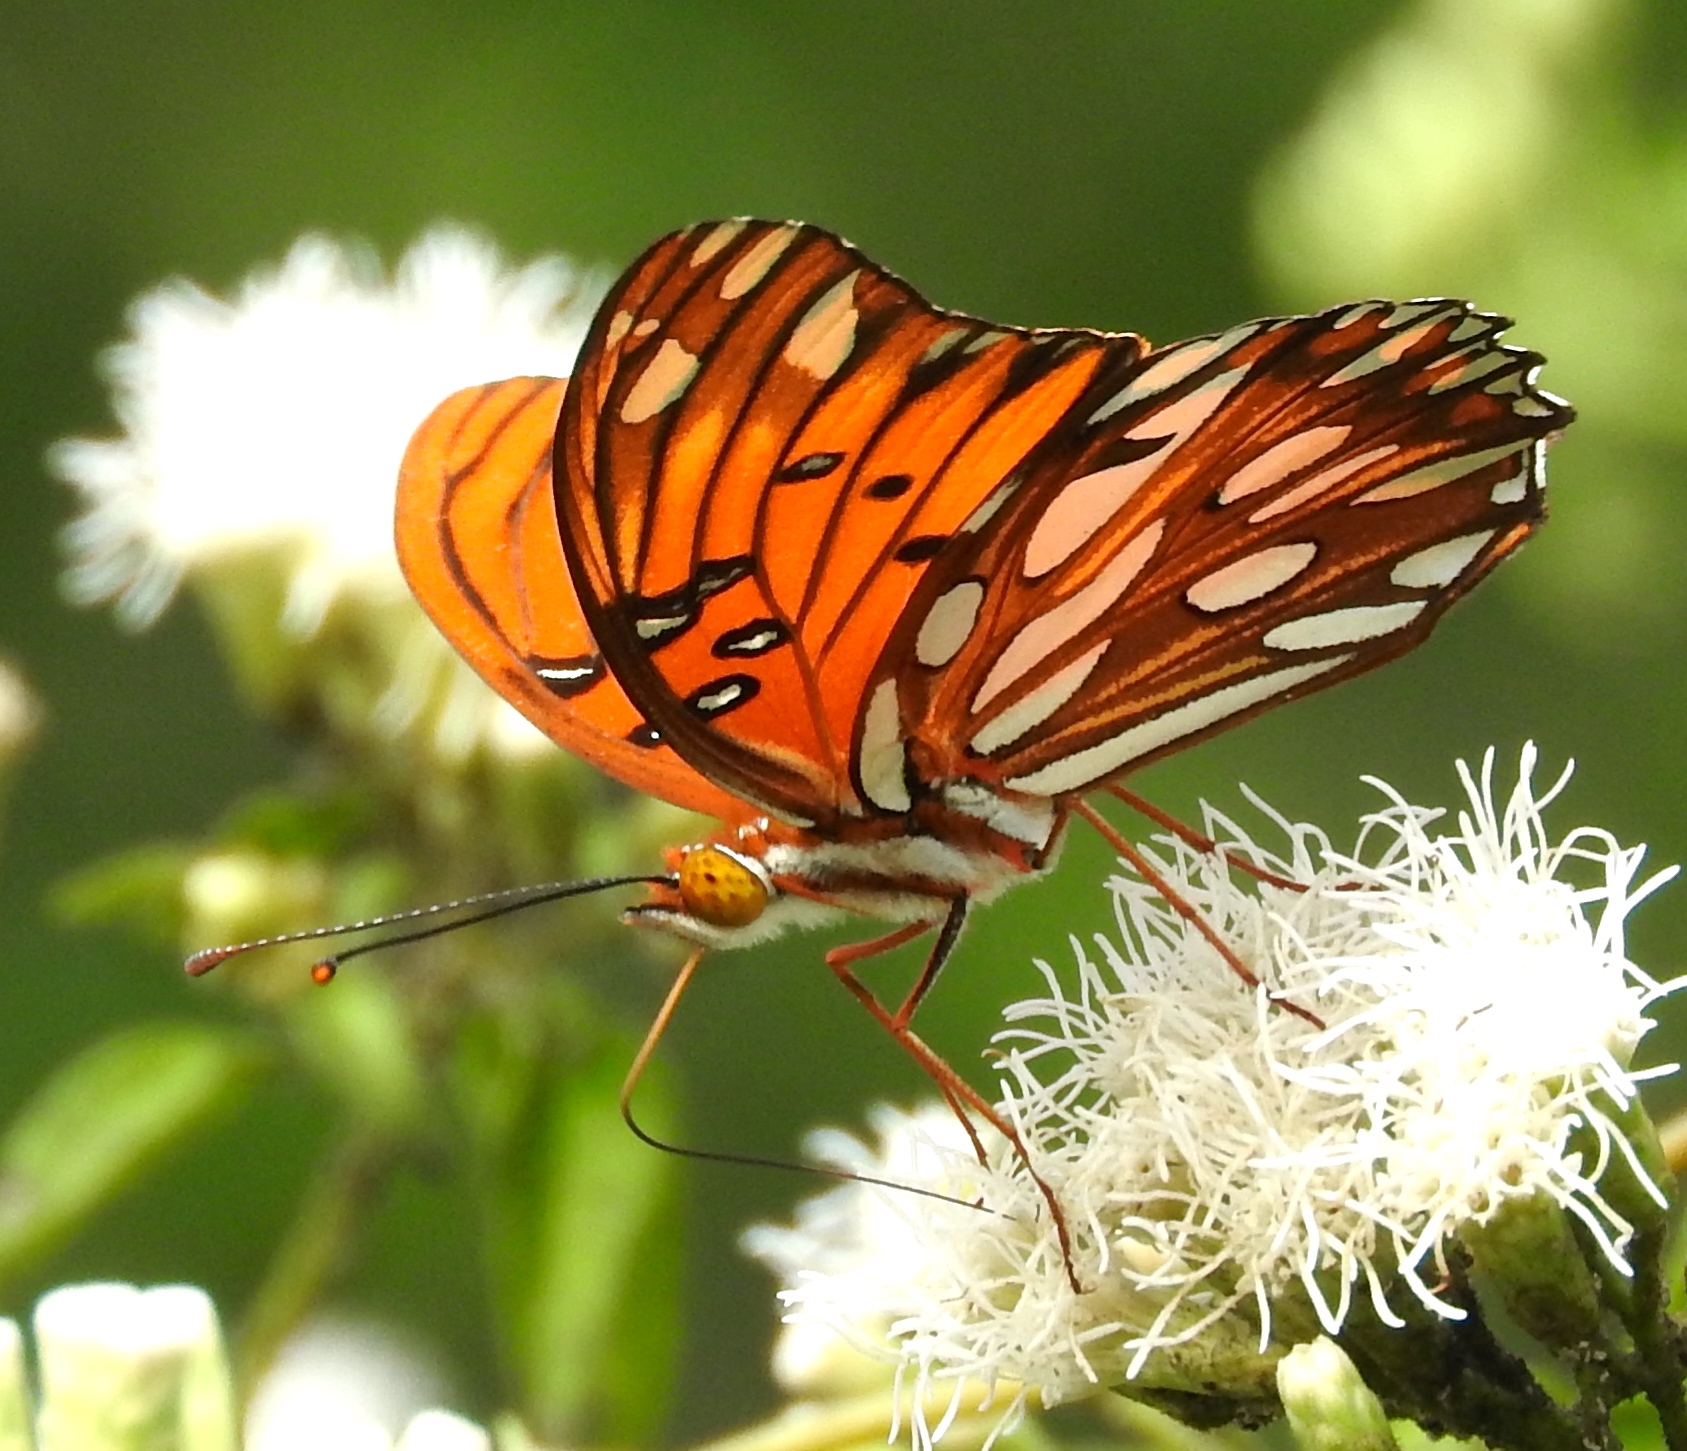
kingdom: Animalia
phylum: Arthropoda
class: Insecta
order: Lepidoptera
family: Nymphalidae
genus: Dione
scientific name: Dione vanillae
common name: Gulf fritillary
